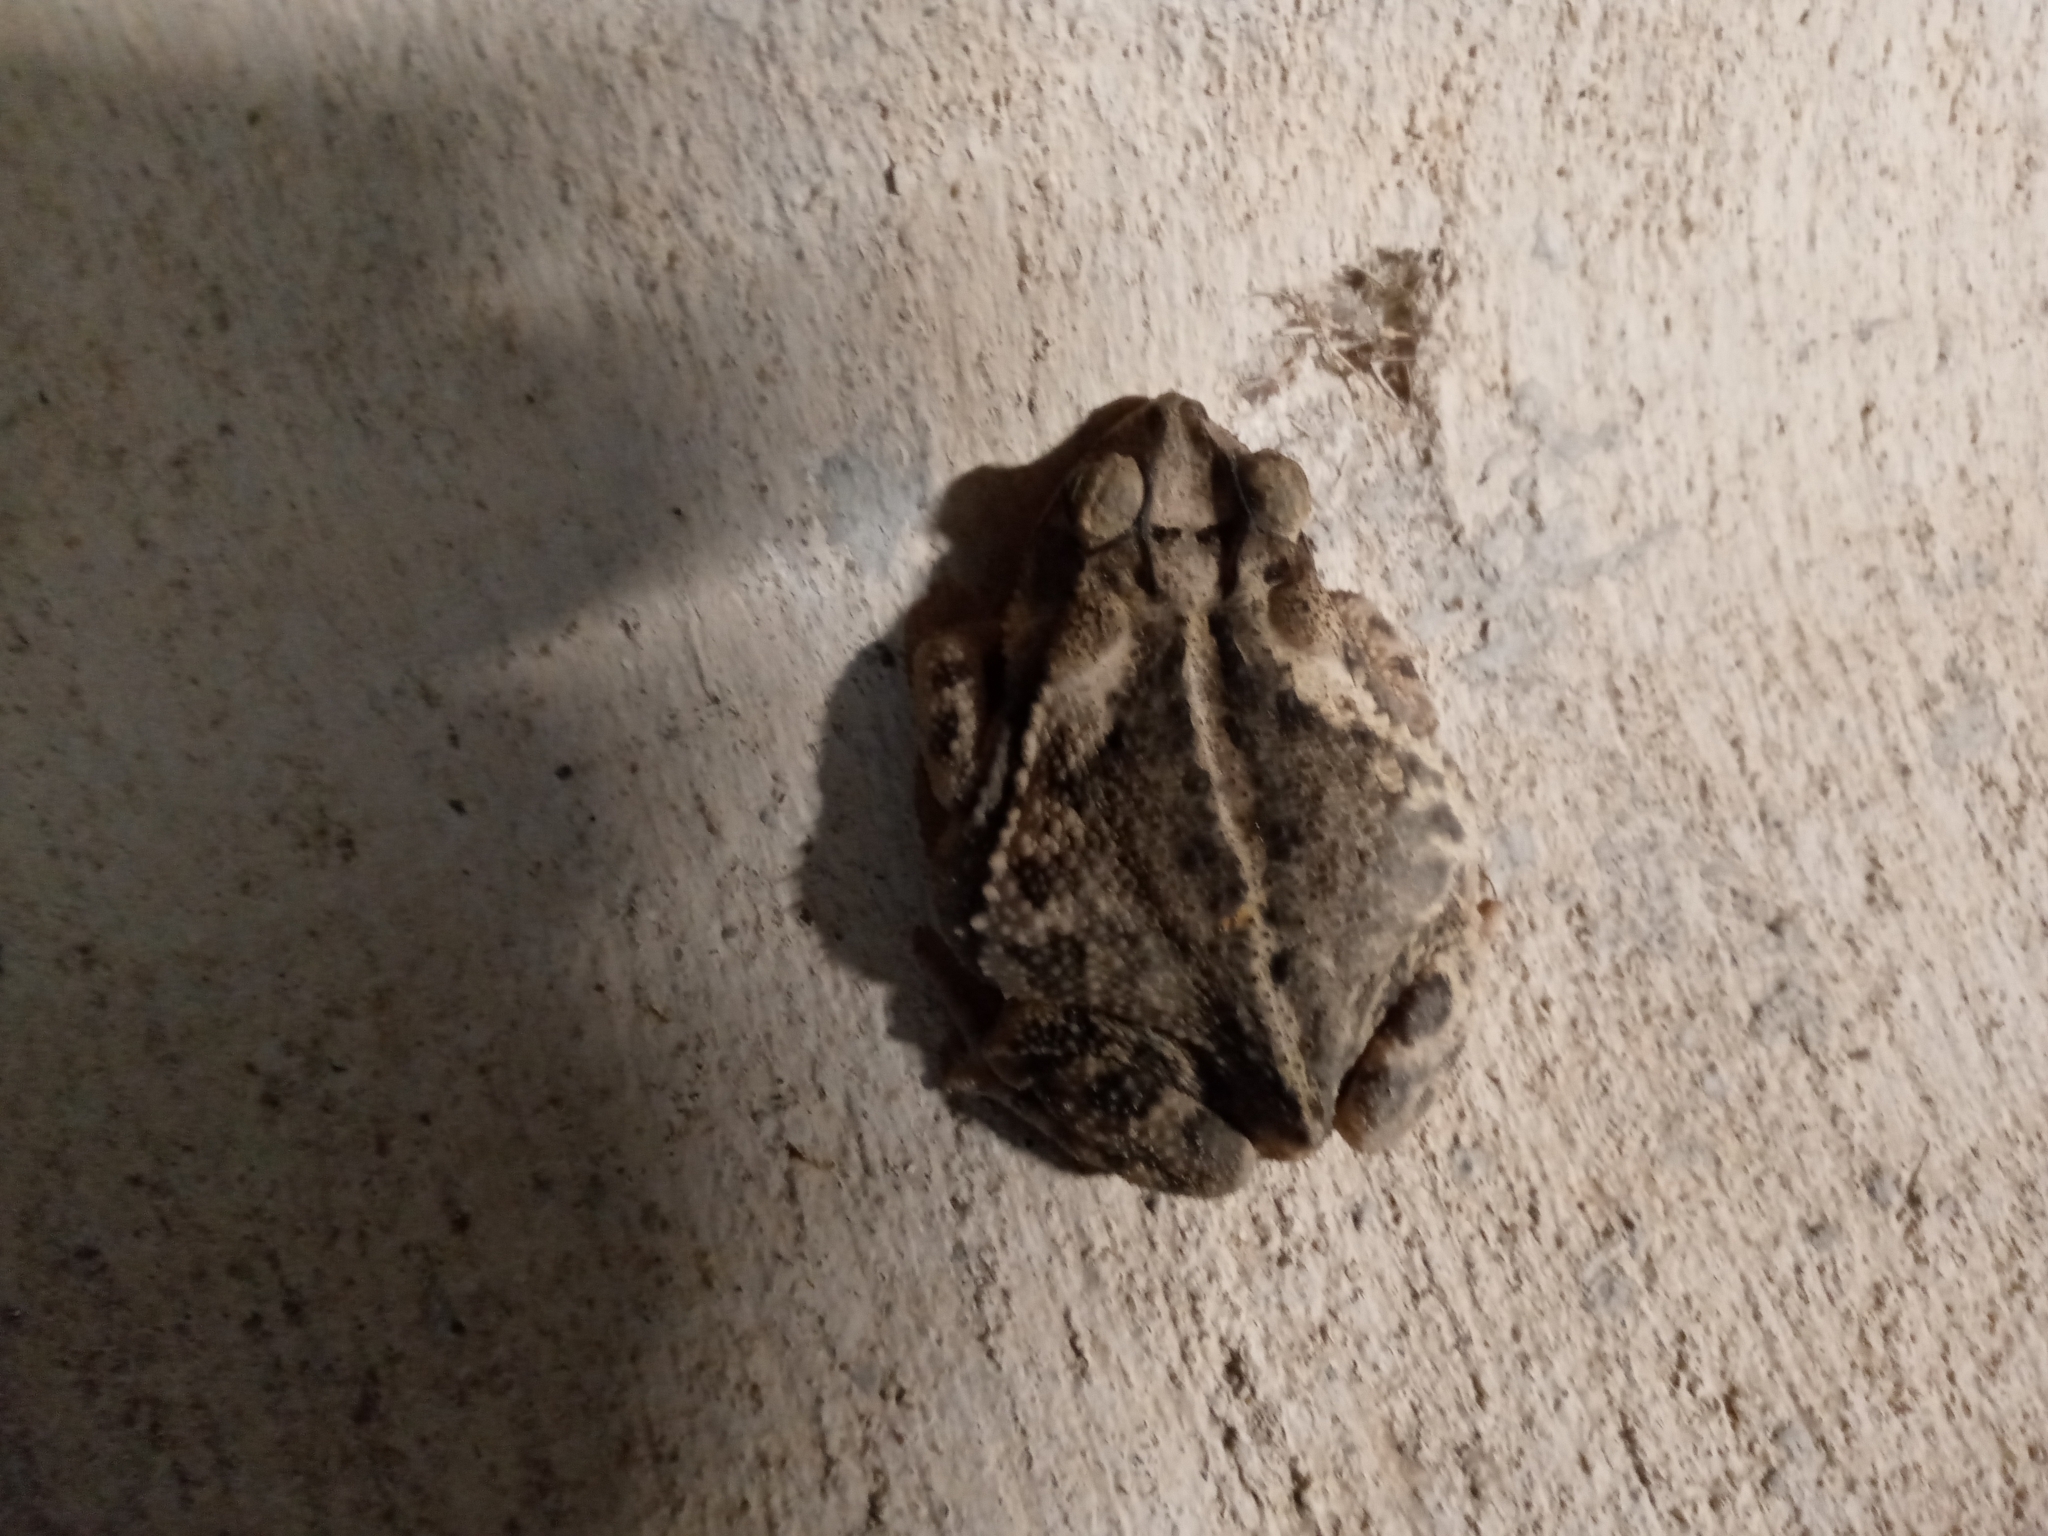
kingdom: Animalia
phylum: Chordata
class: Amphibia
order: Anura
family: Bufonidae
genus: Incilius
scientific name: Incilius nebulifer
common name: Gulf coast toad
